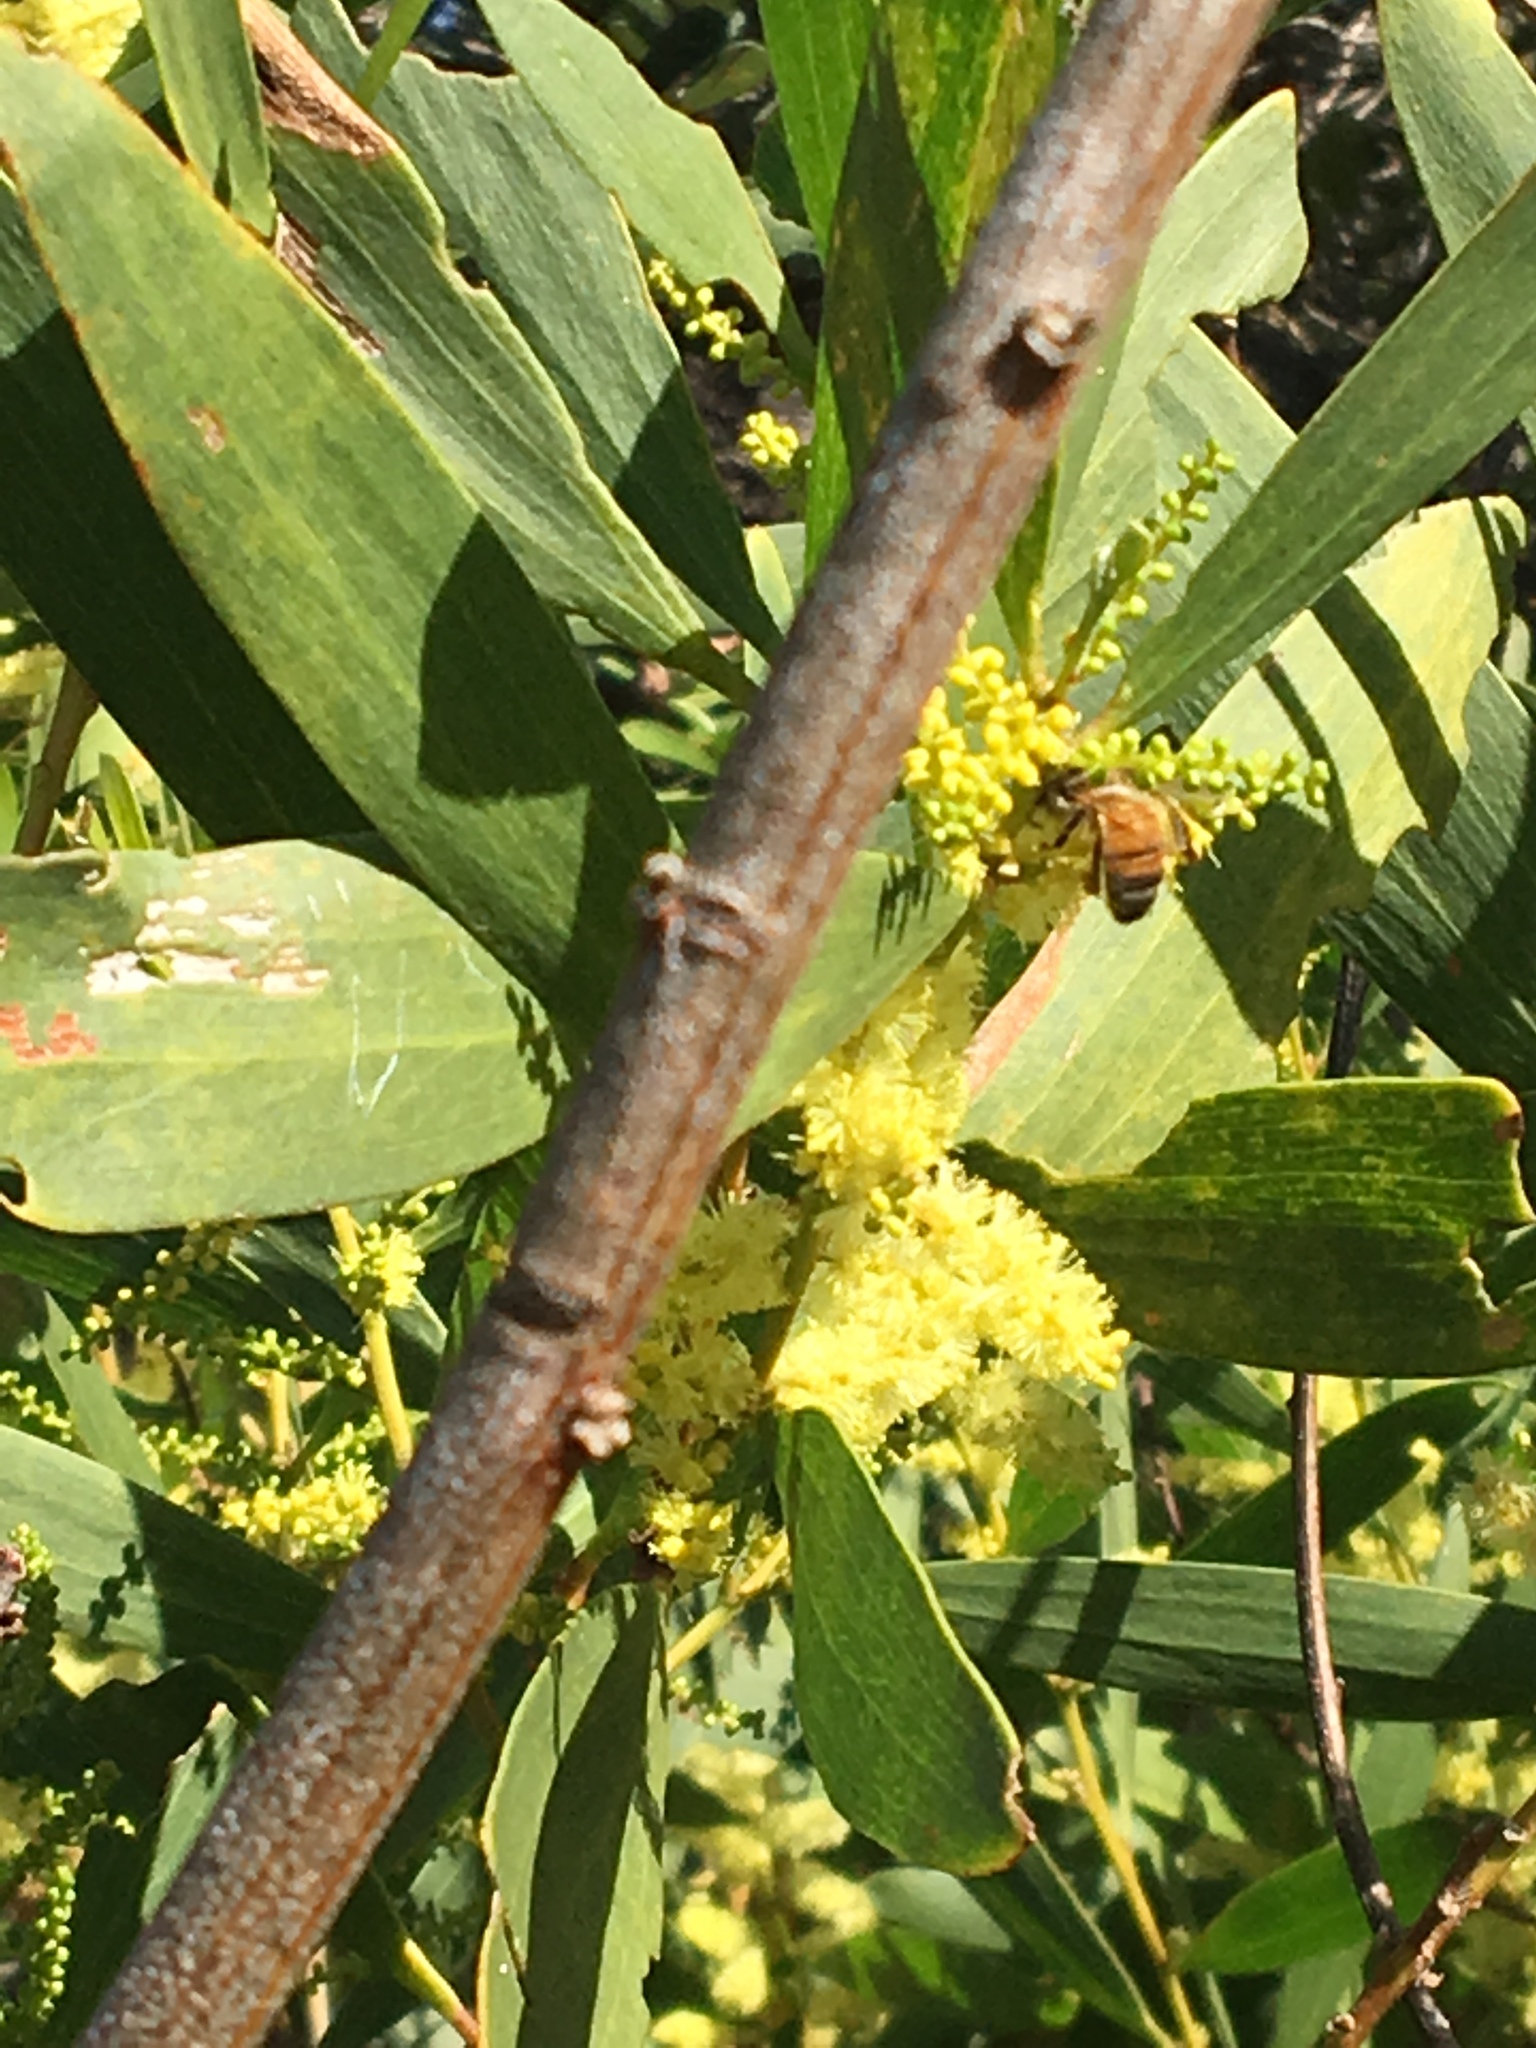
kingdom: Animalia
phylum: Arthropoda
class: Insecta
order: Hymenoptera
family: Apidae
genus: Apis
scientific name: Apis mellifera
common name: Honey bee
